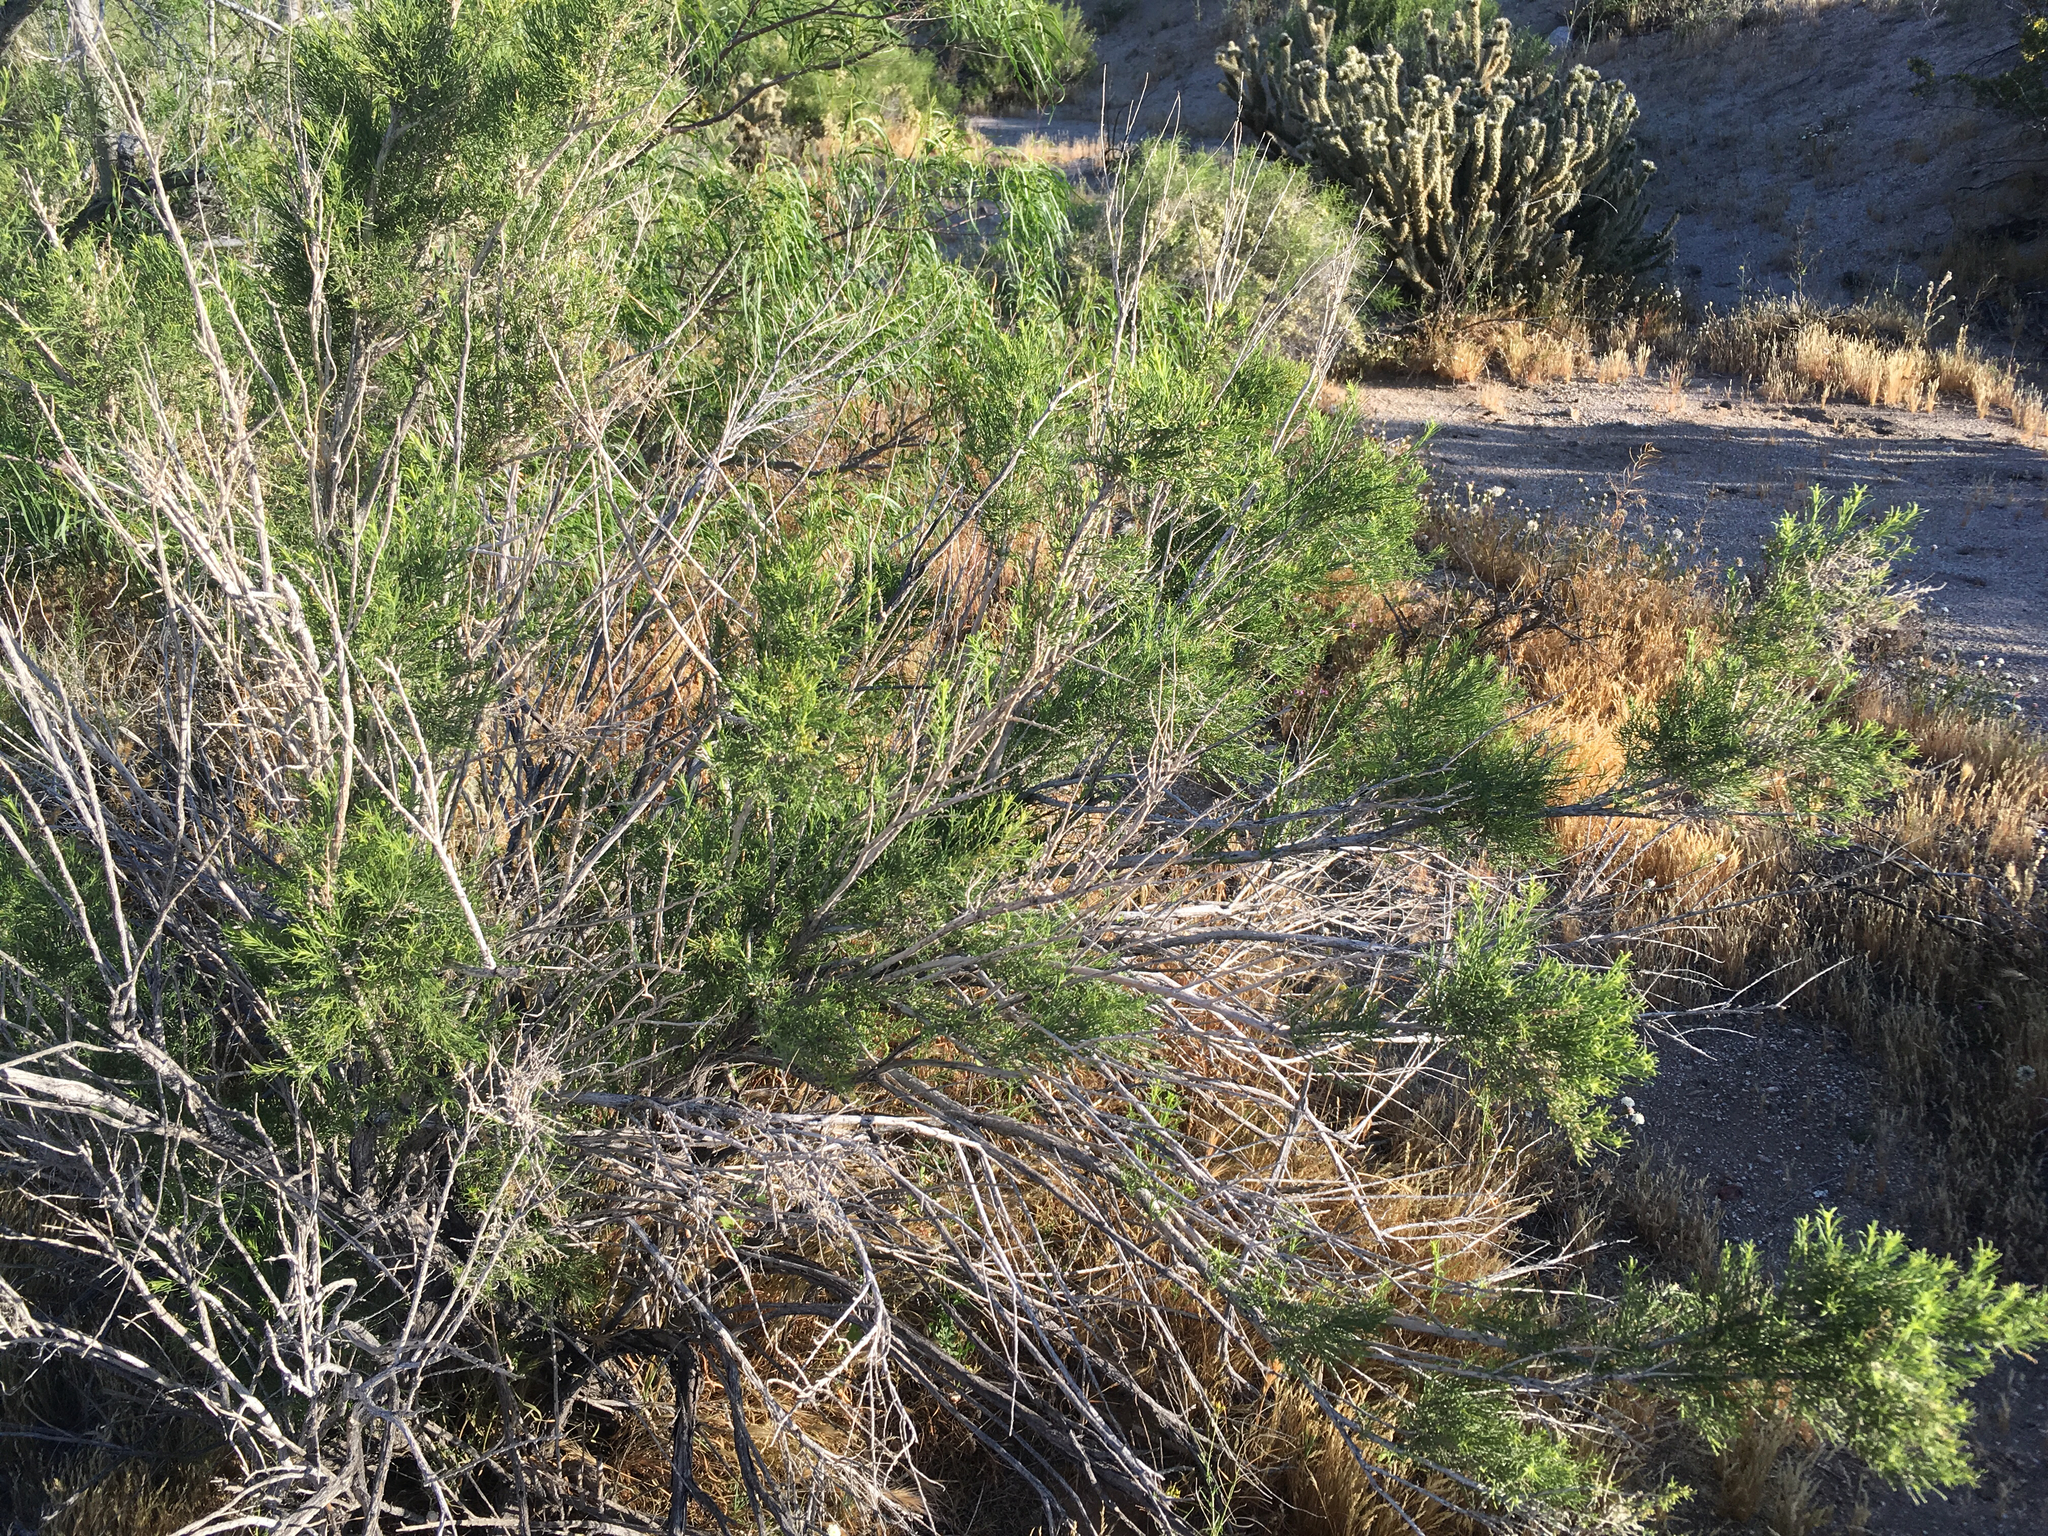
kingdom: Plantae
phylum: Tracheophyta
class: Magnoliopsida
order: Asterales
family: Asteraceae
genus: Ericameria
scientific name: Ericameria paniculata
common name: Punctate rabbitbrush
